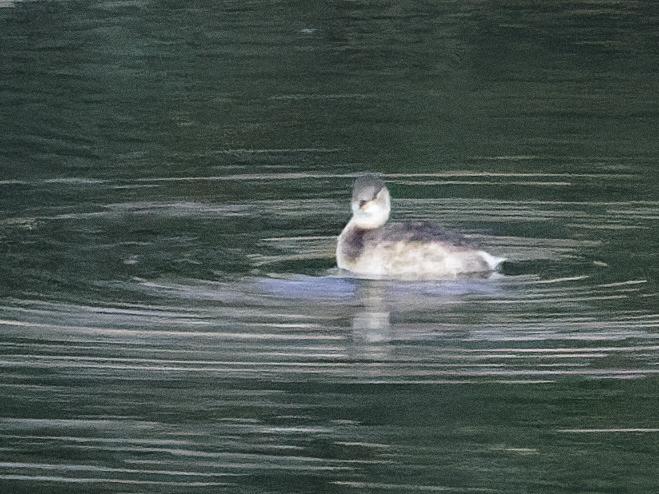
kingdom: Animalia
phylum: Chordata
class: Aves
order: Podicipediformes
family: Podicipedidae
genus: Tachybaptus
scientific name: Tachybaptus ruficollis
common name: Little grebe
